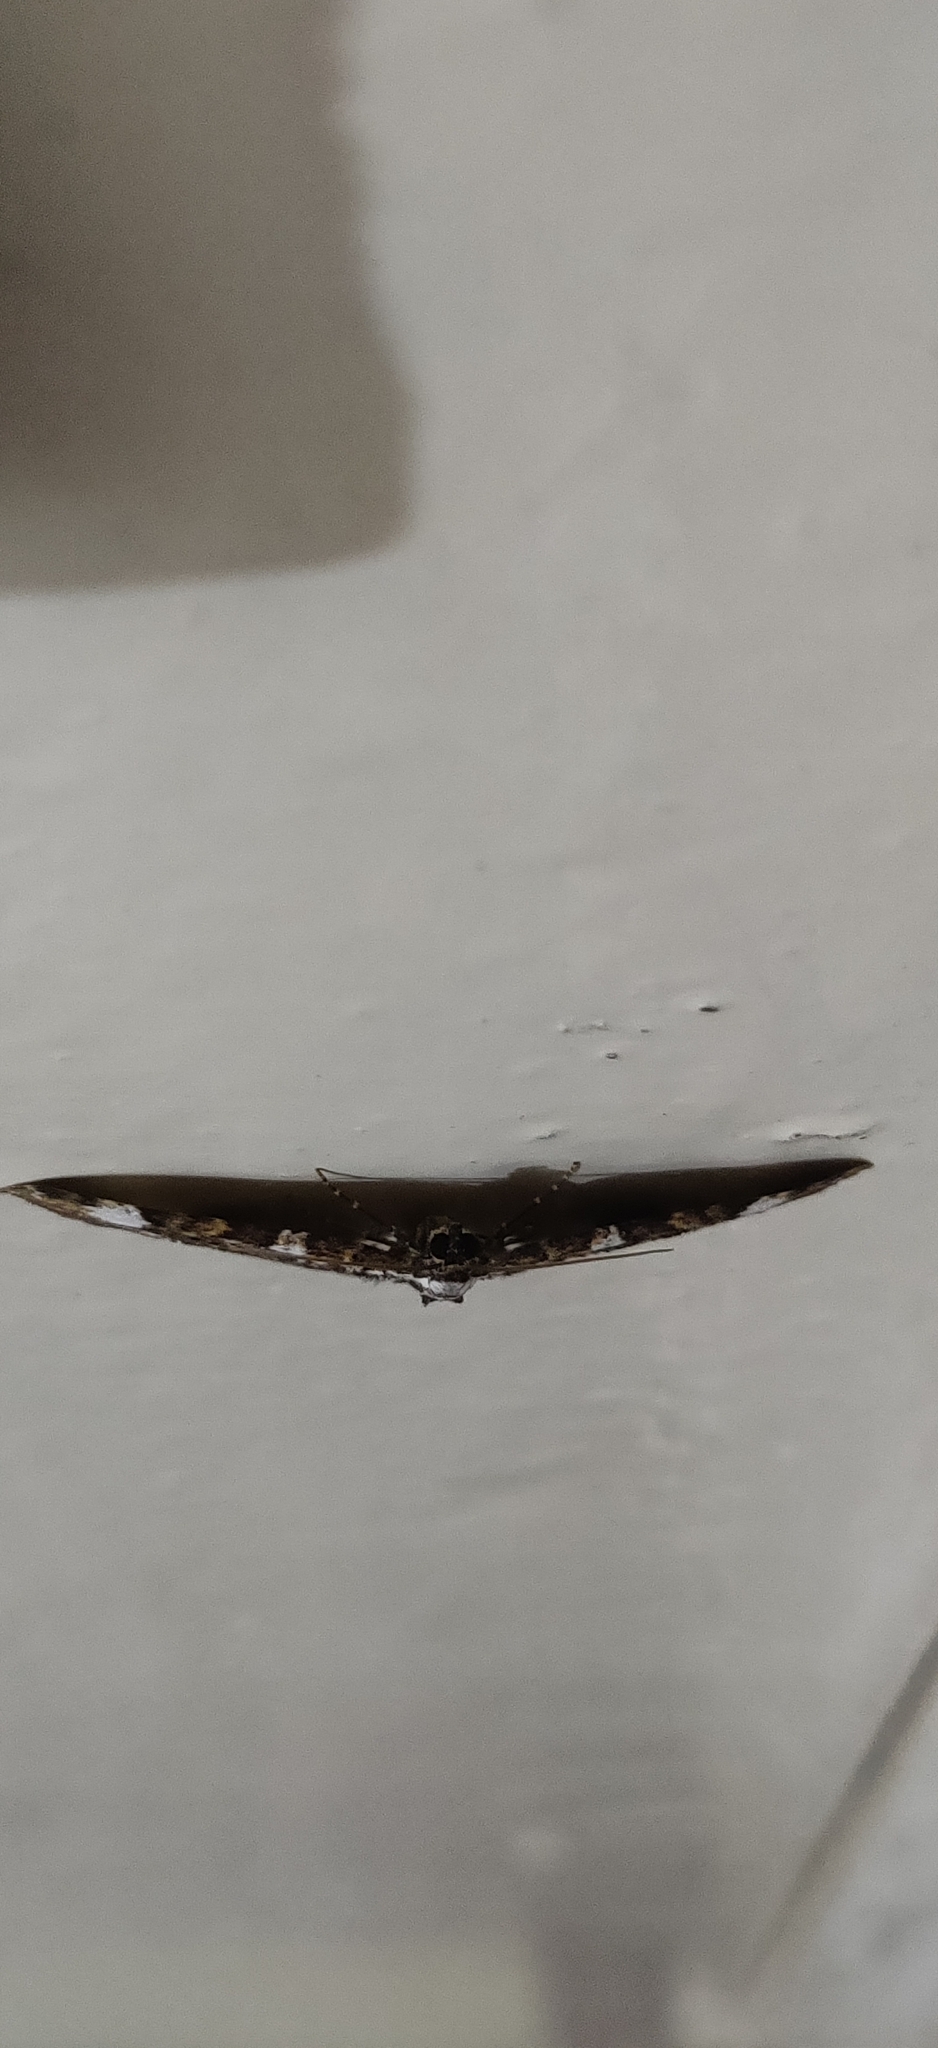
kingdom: Animalia
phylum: Arthropoda
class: Insecta
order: Lepidoptera
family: Geometridae
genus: Horisme
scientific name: Horisme leprosa
